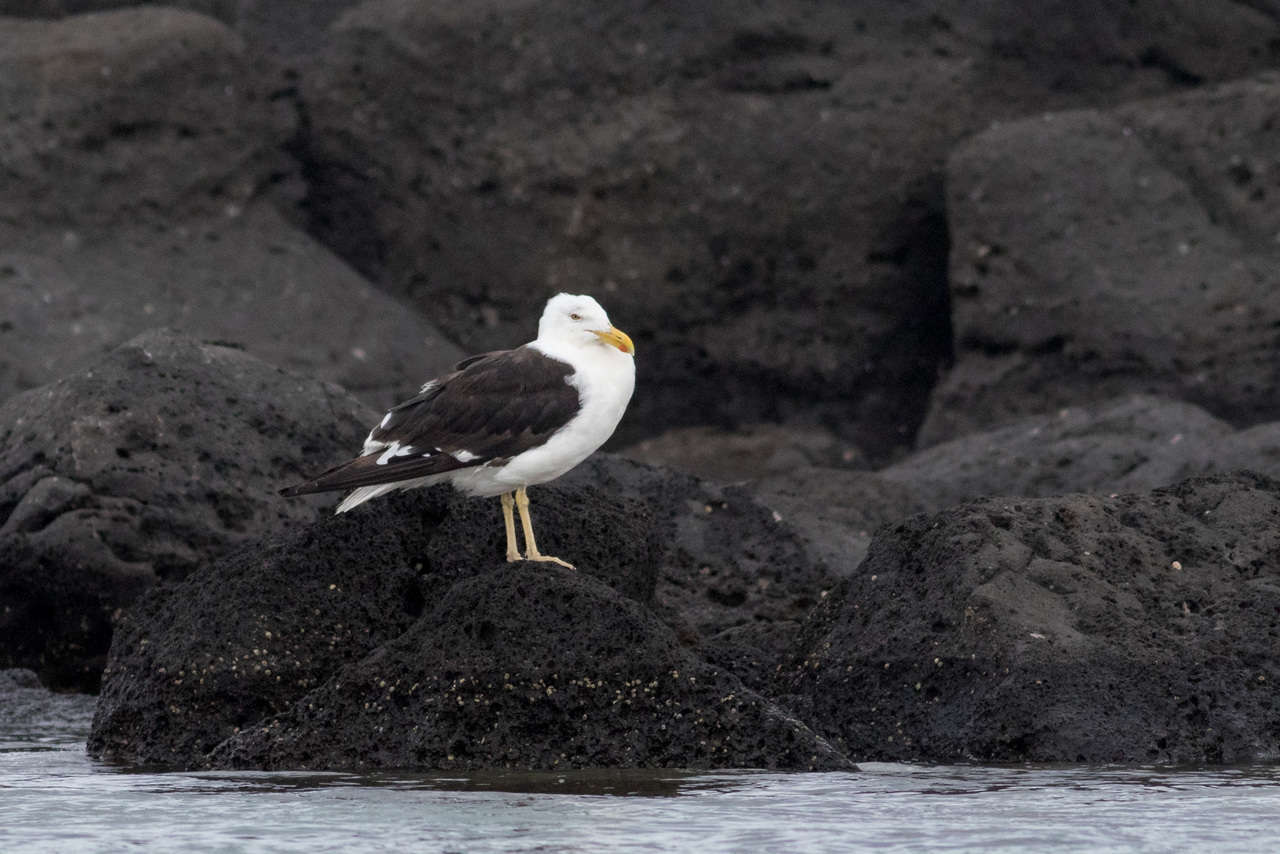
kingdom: Animalia
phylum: Chordata
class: Aves
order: Charadriiformes
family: Laridae
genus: Larus
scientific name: Larus dominicanus
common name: Kelp gull
